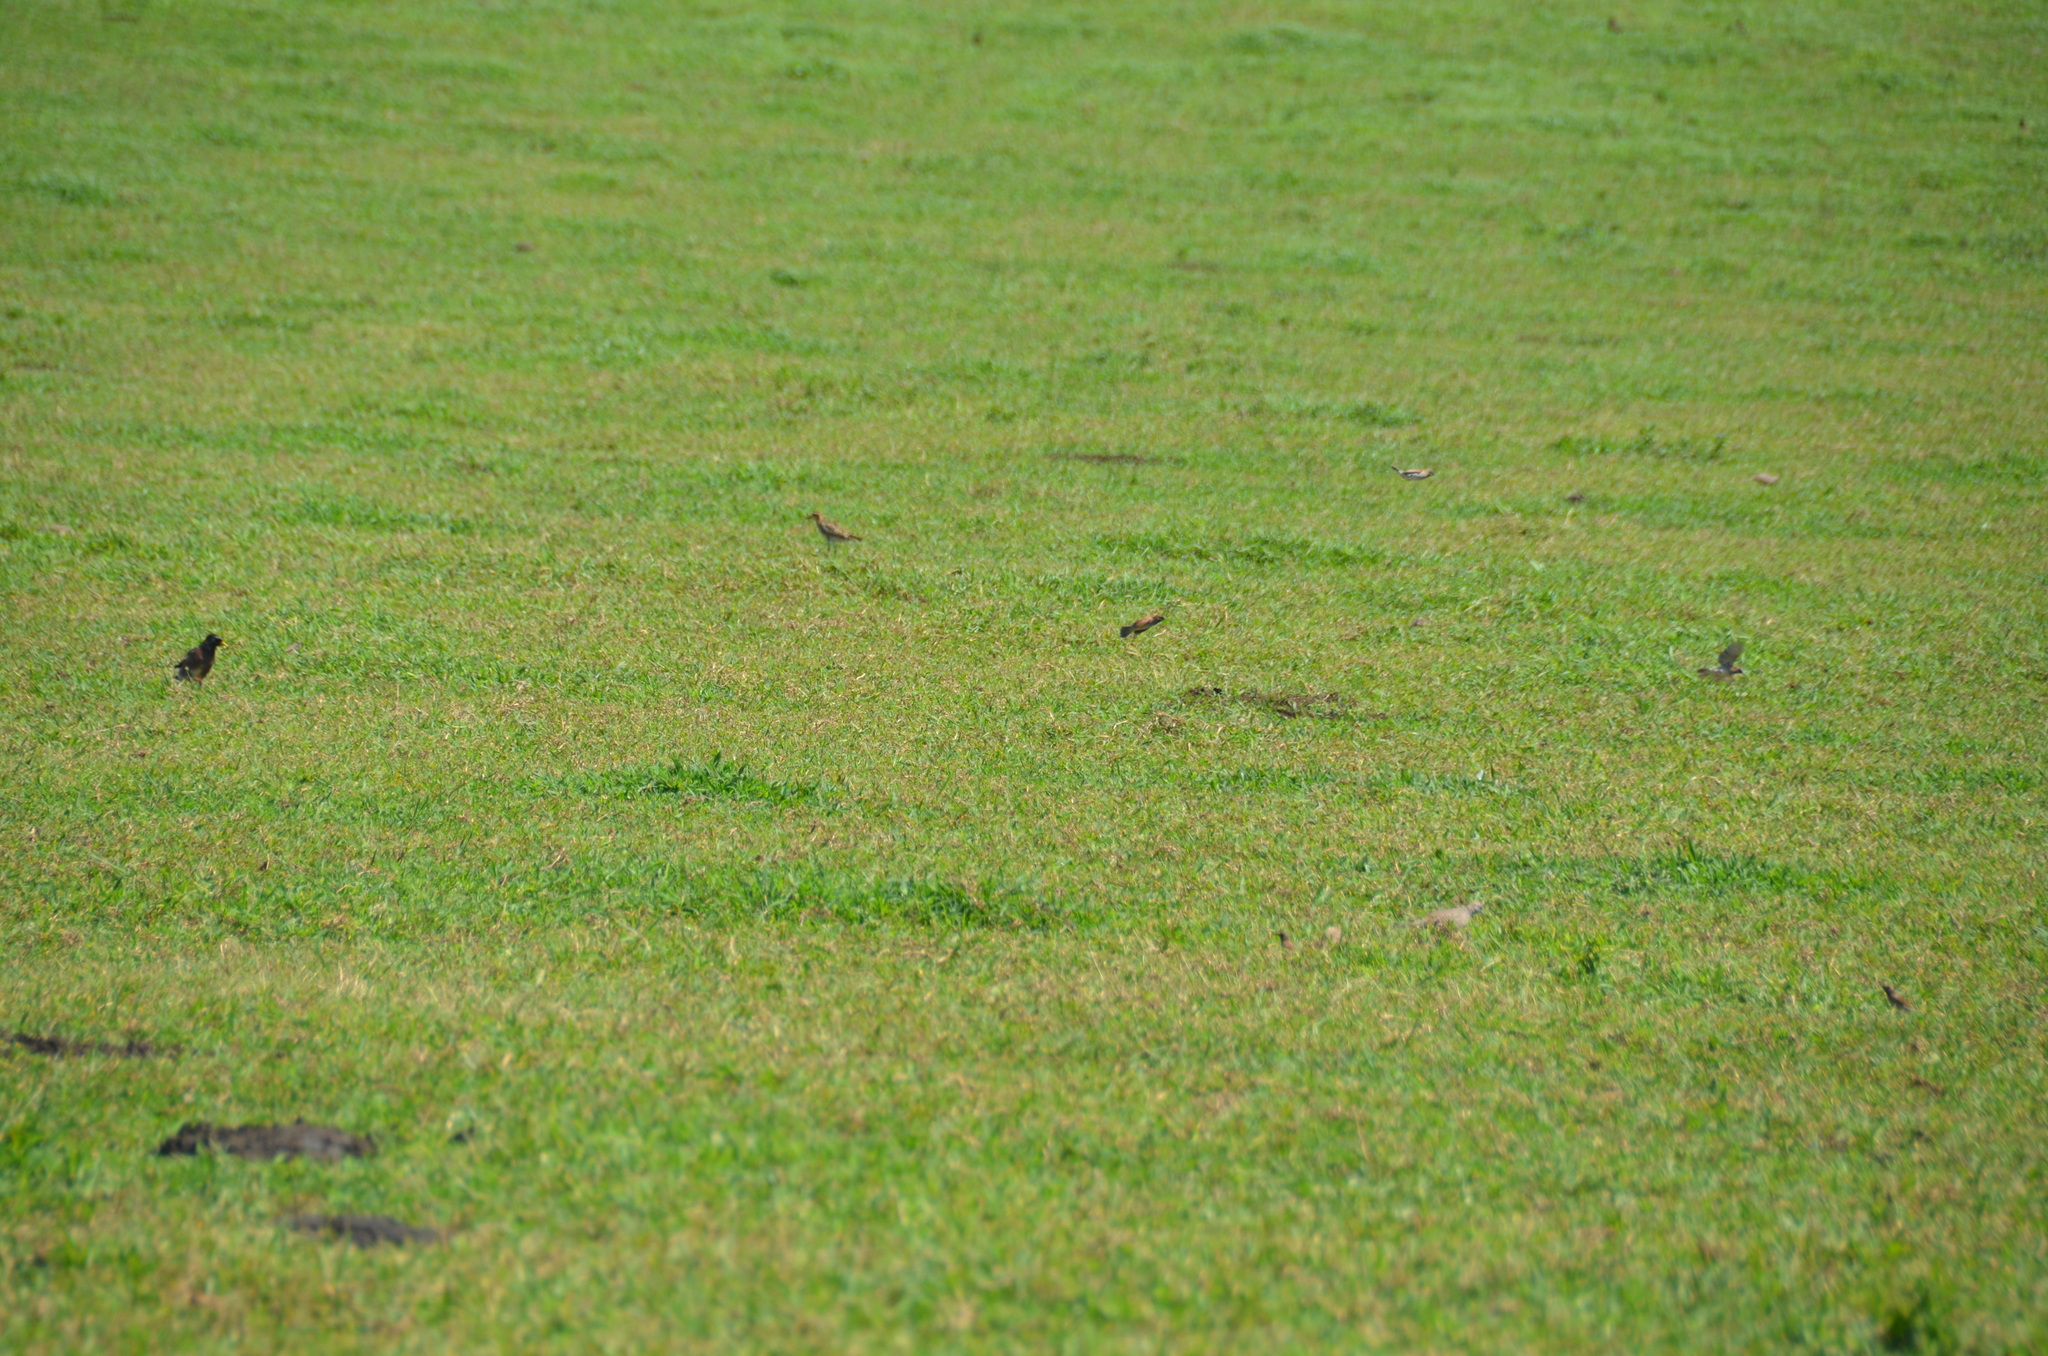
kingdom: Animalia
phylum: Chordata
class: Aves
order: Passeriformes
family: Estrildidae
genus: Lonchura
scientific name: Lonchura punctulata
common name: Scaly-breasted munia
